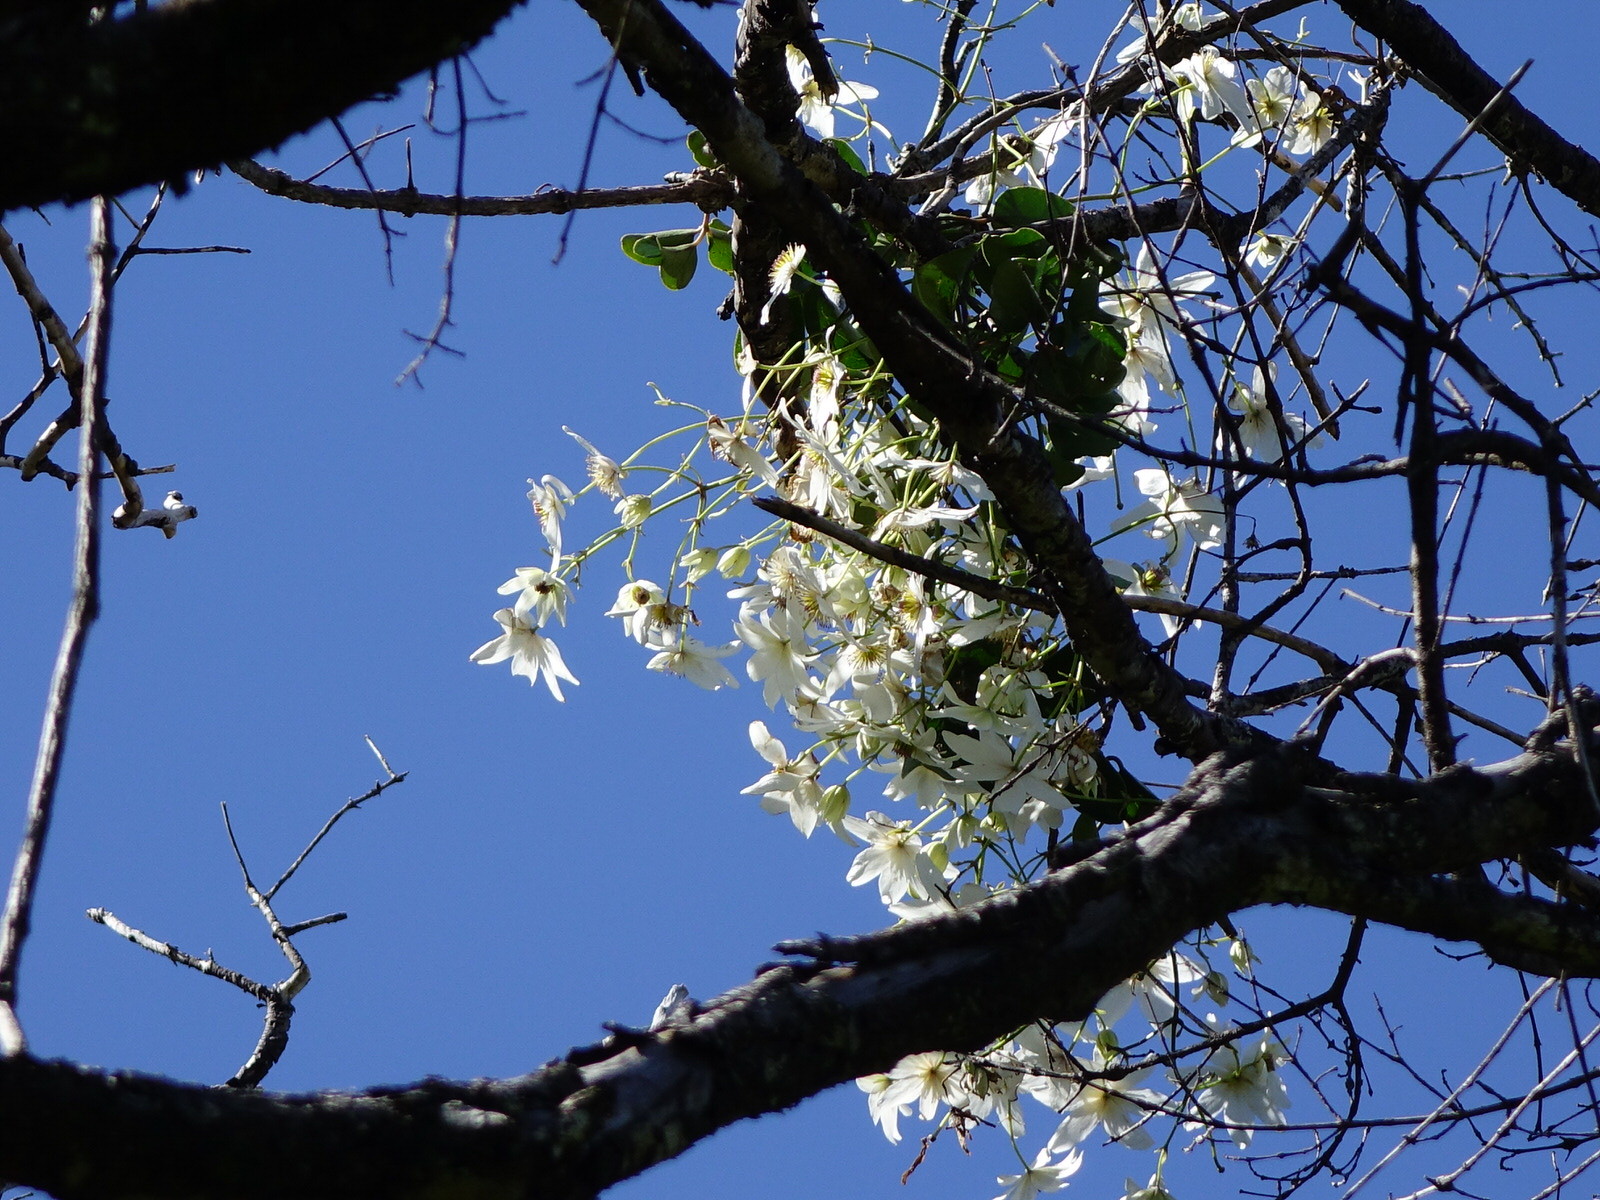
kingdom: Plantae
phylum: Tracheophyta
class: Magnoliopsida
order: Ranunculales
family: Ranunculaceae
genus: Clematis
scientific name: Clematis paniculata
